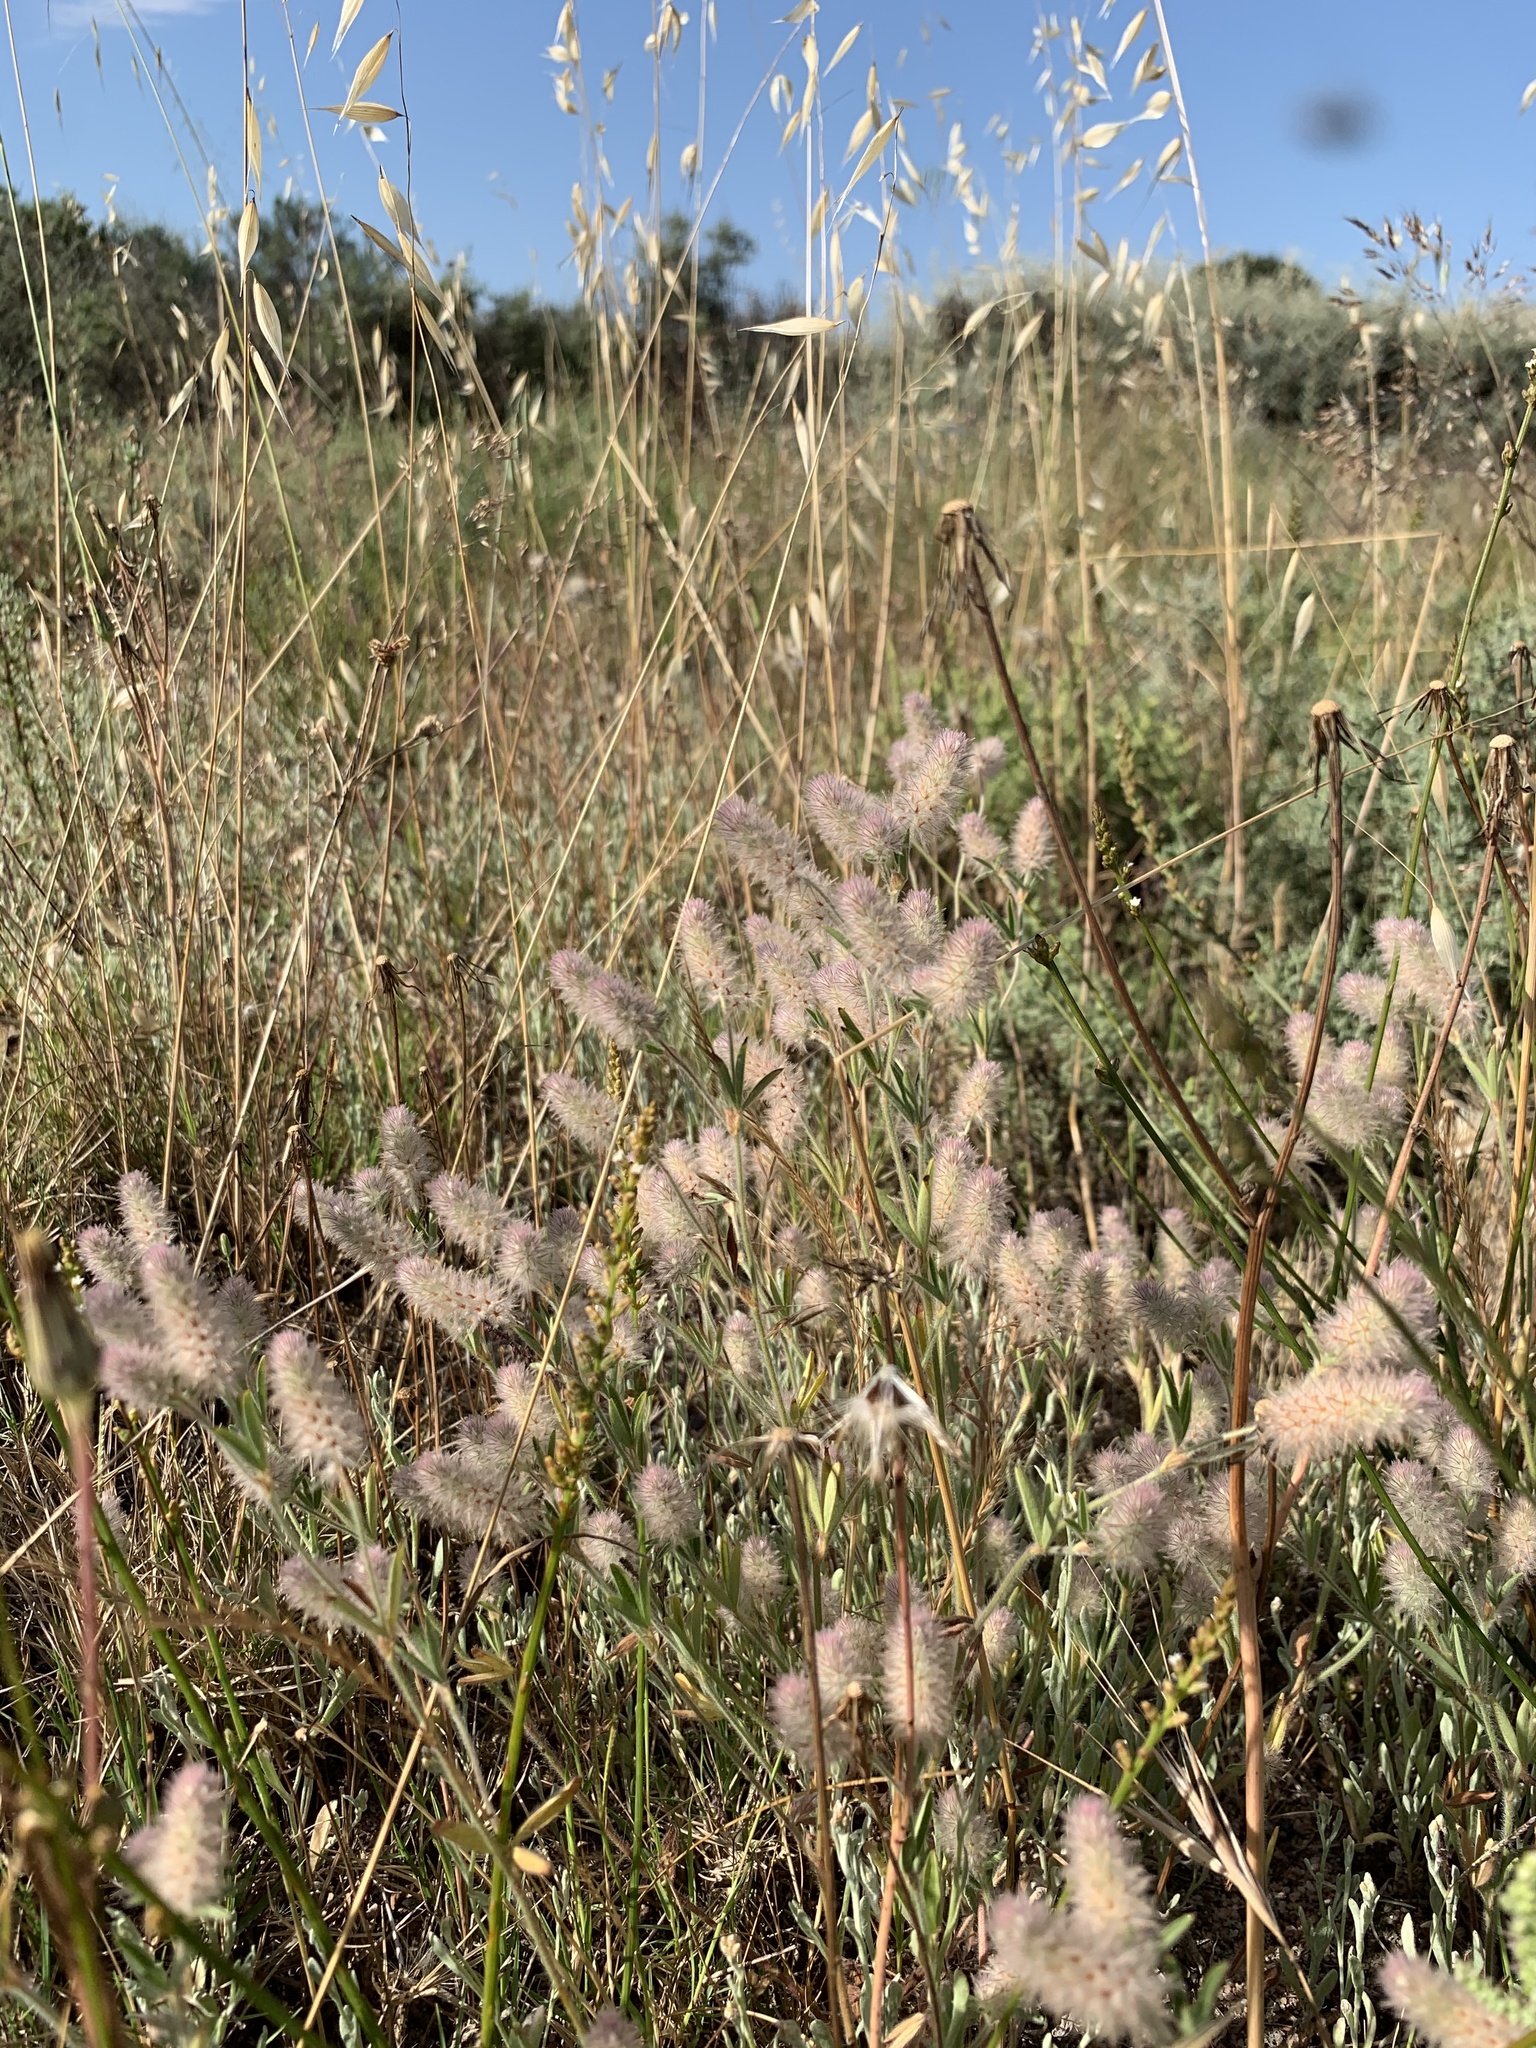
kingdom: Plantae
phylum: Tracheophyta
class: Magnoliopsida
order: Fabales
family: Fabaceae
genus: Trifolium
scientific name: Trifolium angustifolium
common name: Narrow clover
